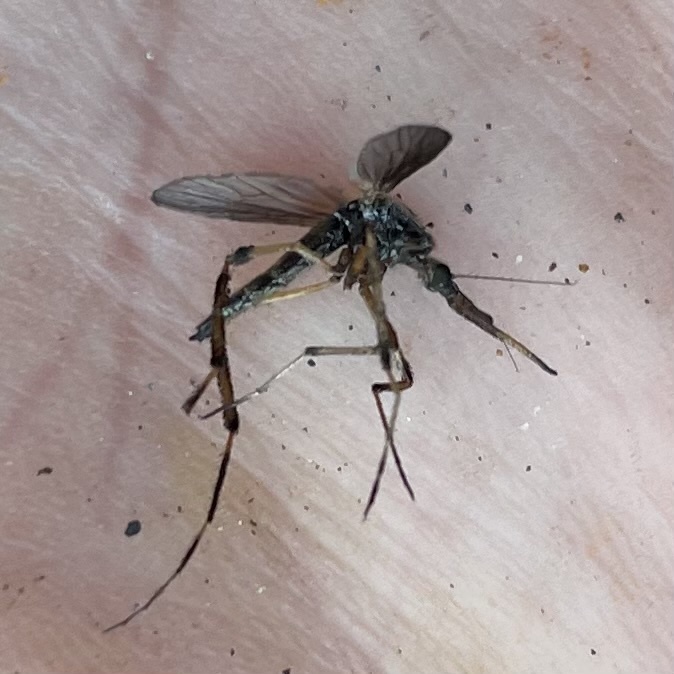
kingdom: Animalia
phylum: Arthropoda
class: Insecta
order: Diptera
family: Culicidae
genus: Psorophora
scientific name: Psorophora ciliata
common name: Gallinipper
